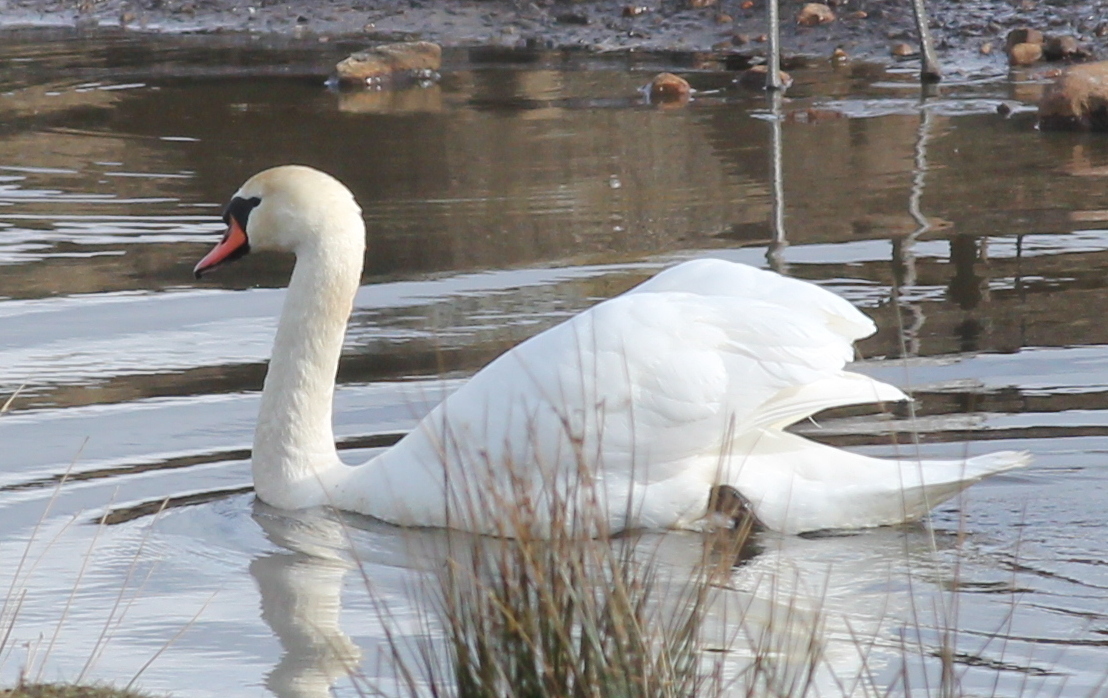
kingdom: Animalia
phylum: Chordata
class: Aves
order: Anseriformes
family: Anatidae
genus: Cygnus
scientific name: Cygnus olor
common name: Mute swan
